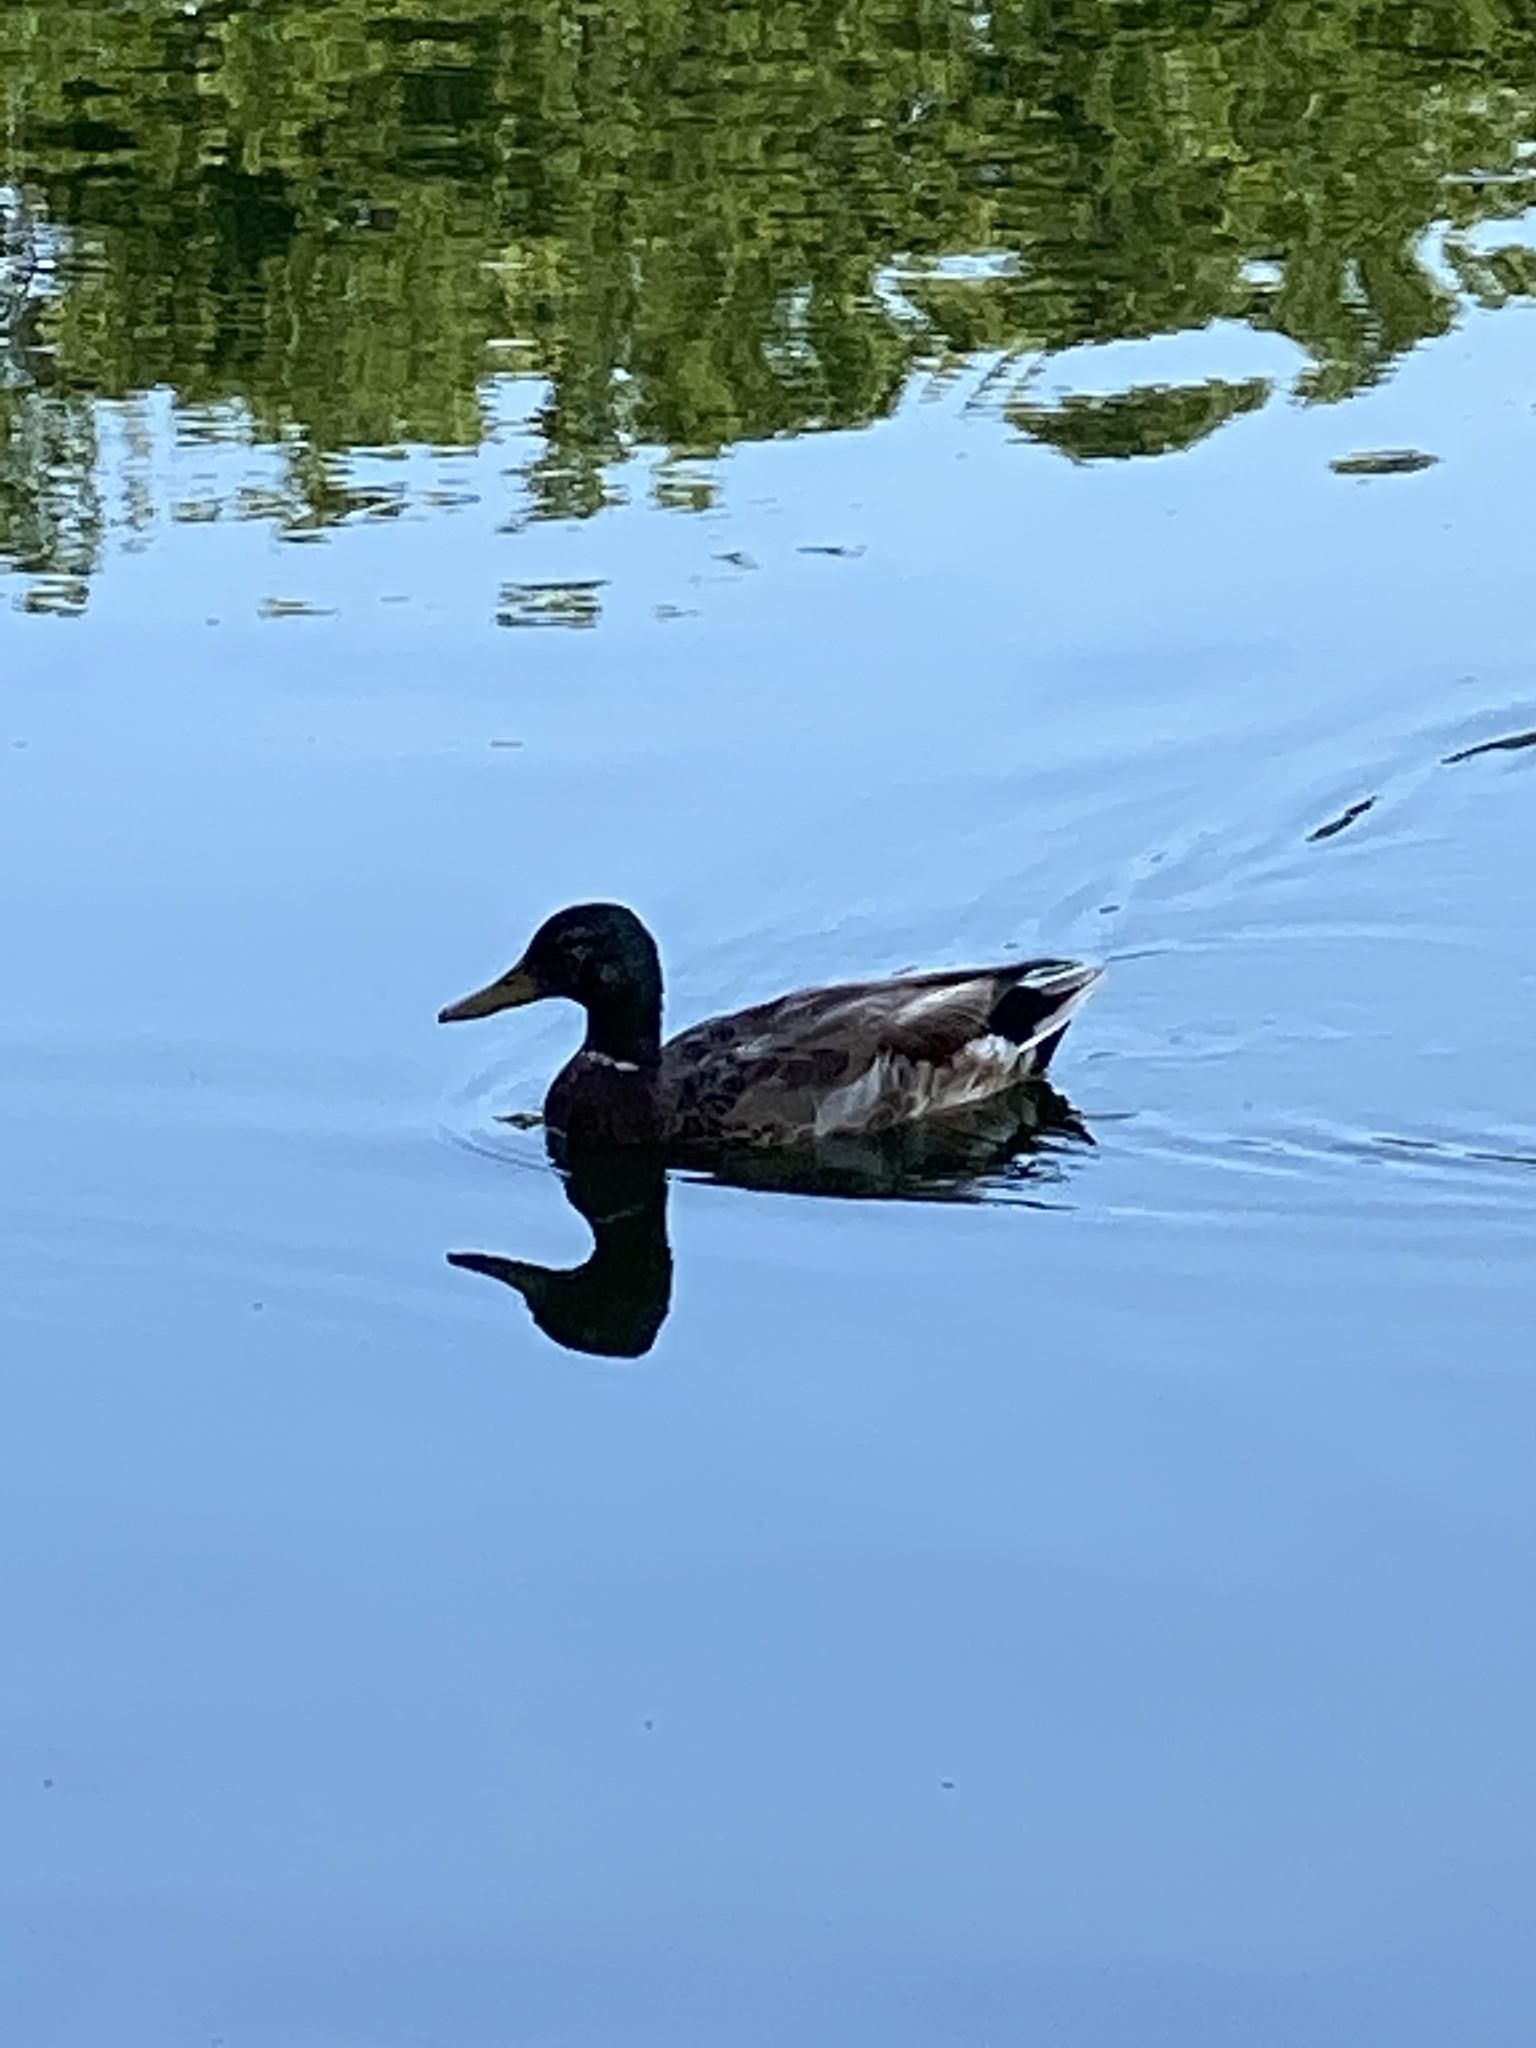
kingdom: Animalia
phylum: Chordata
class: Aves
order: Anseriformes
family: Anatidae
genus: Anas
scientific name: Anas platyrhynchos
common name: Mallard
